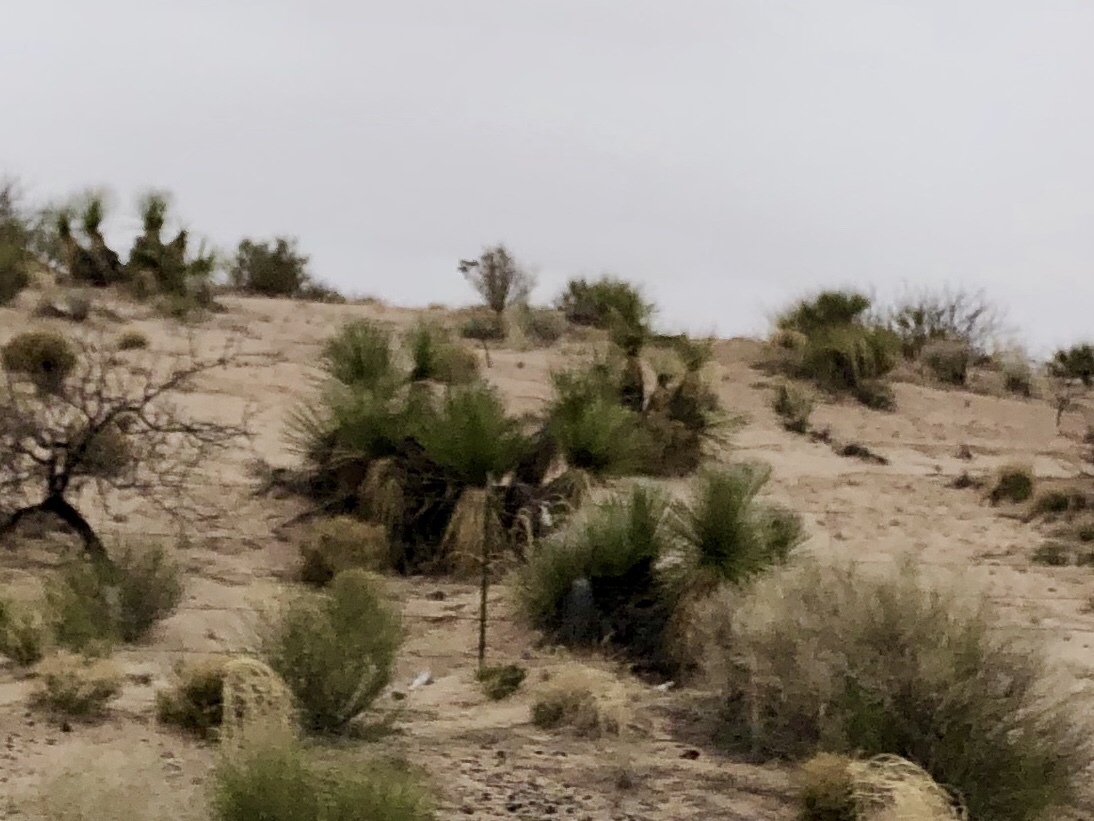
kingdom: Plantae
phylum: Tracheophyta
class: Liliopsida
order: Asparagales
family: Asparagaceae
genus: Yucca
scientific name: Yucca elata
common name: Palmella
